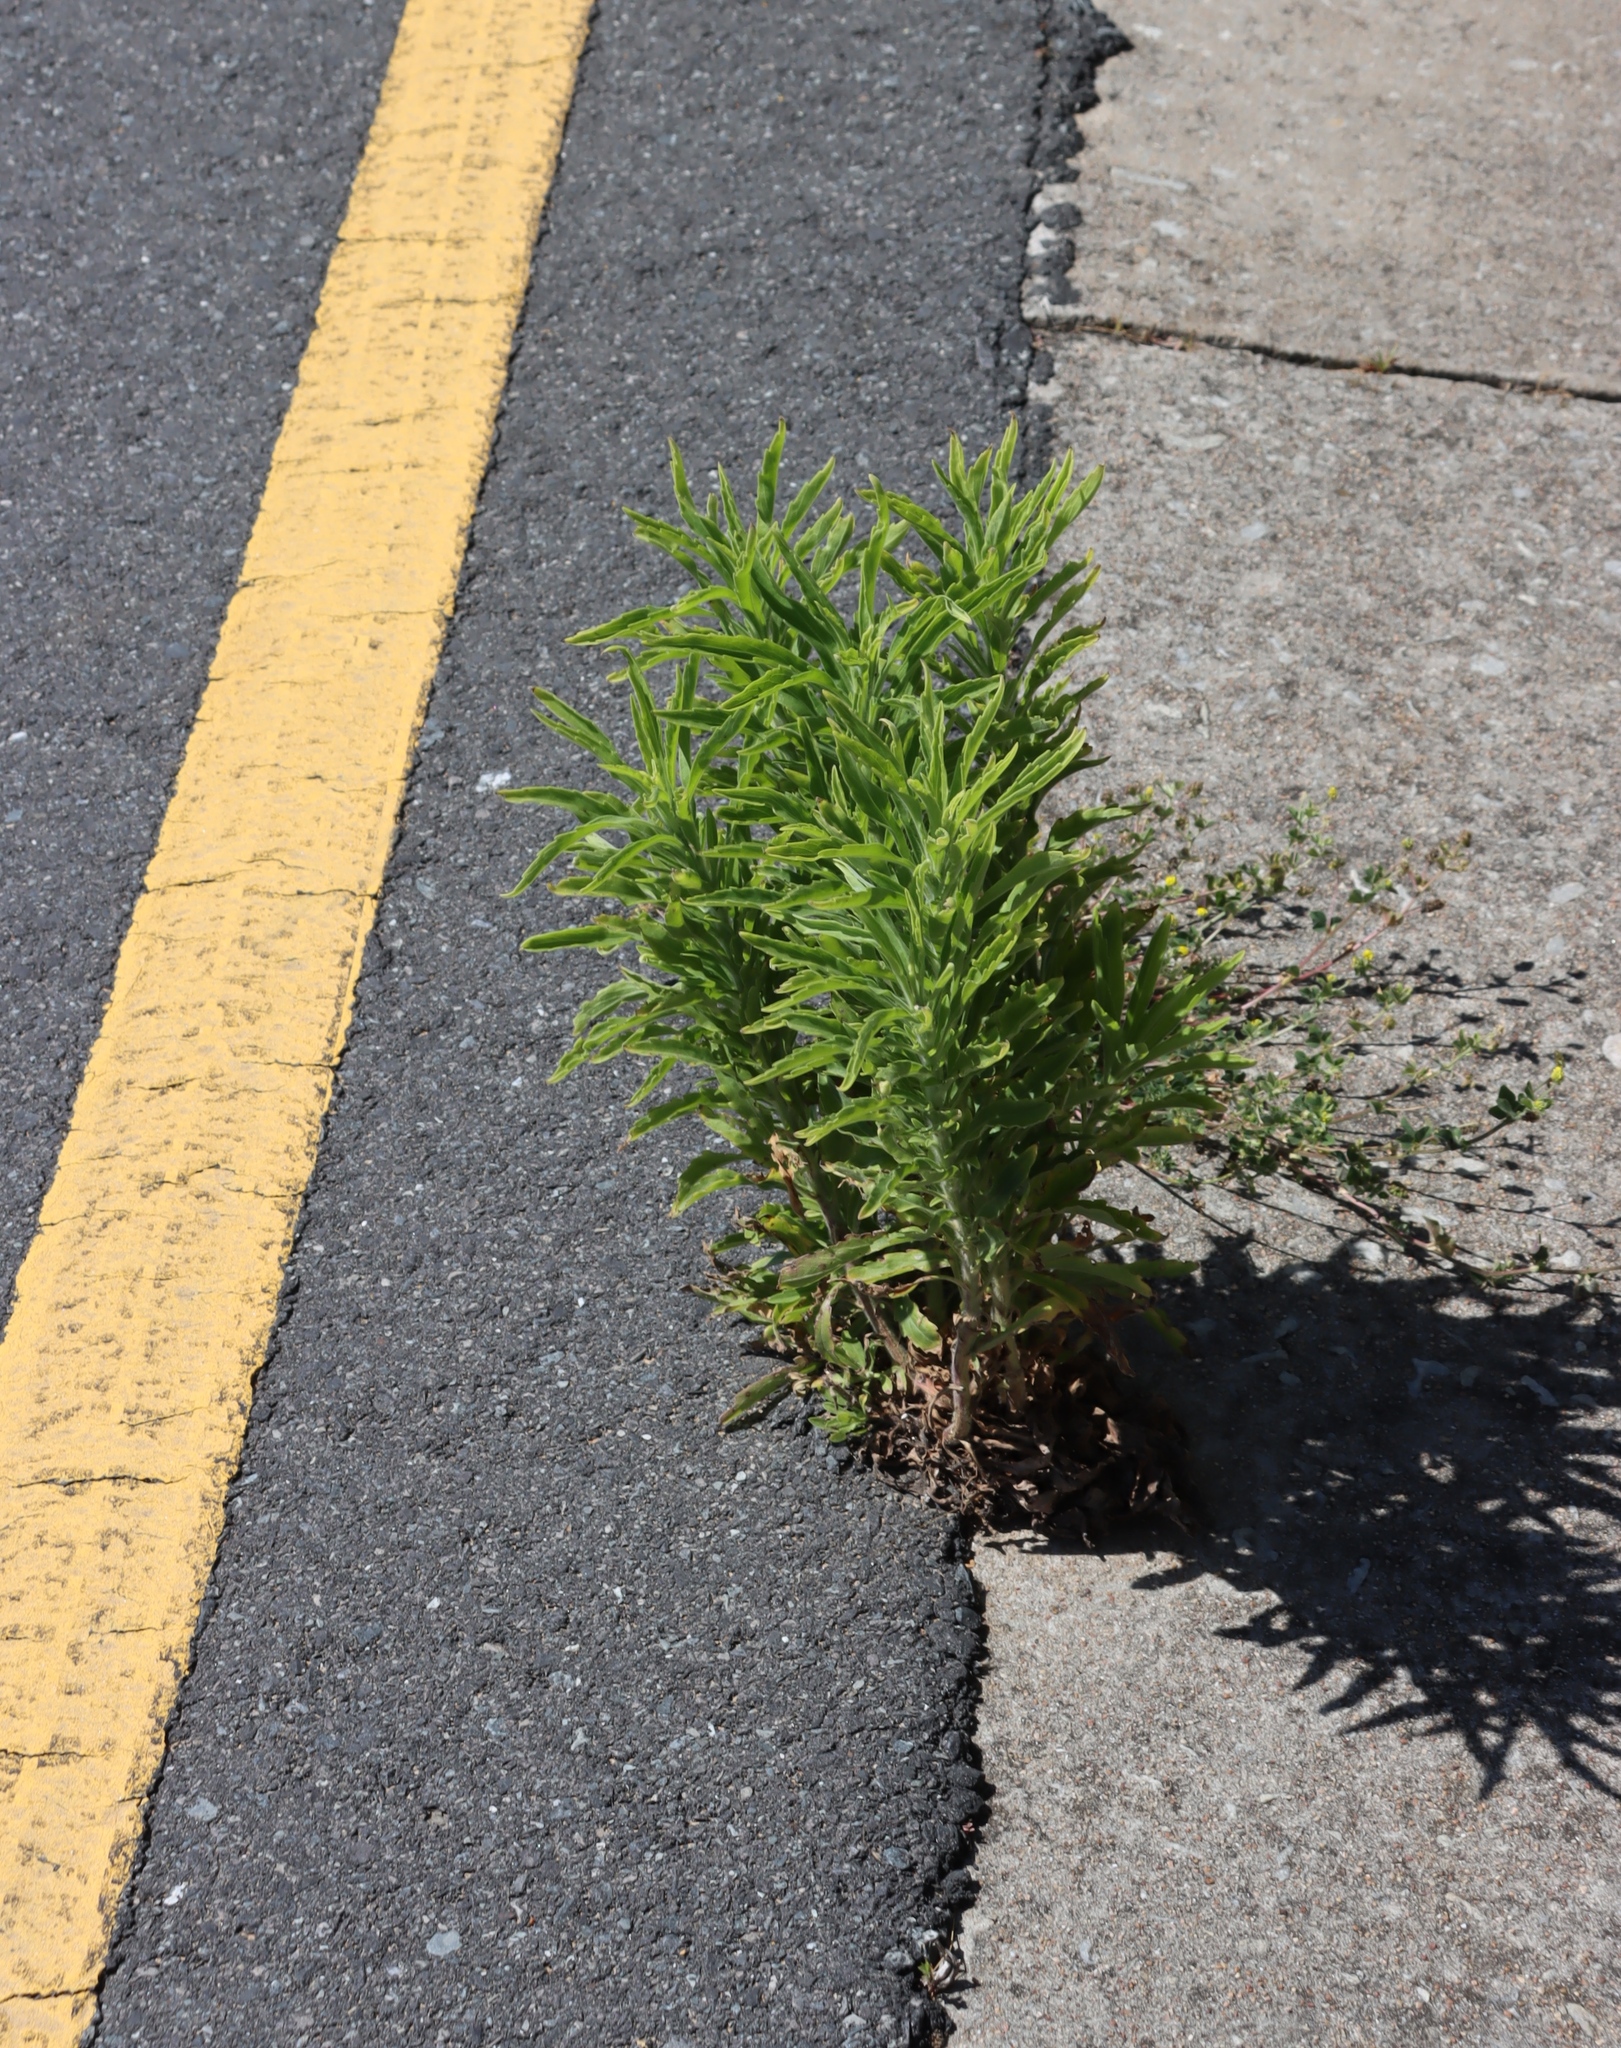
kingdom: Plantae
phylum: Tracheophyta
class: Magnoliopsida
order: Asterales
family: Asteraceae
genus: Erigeron
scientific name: Erigeron sumatrensis
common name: Daisy
